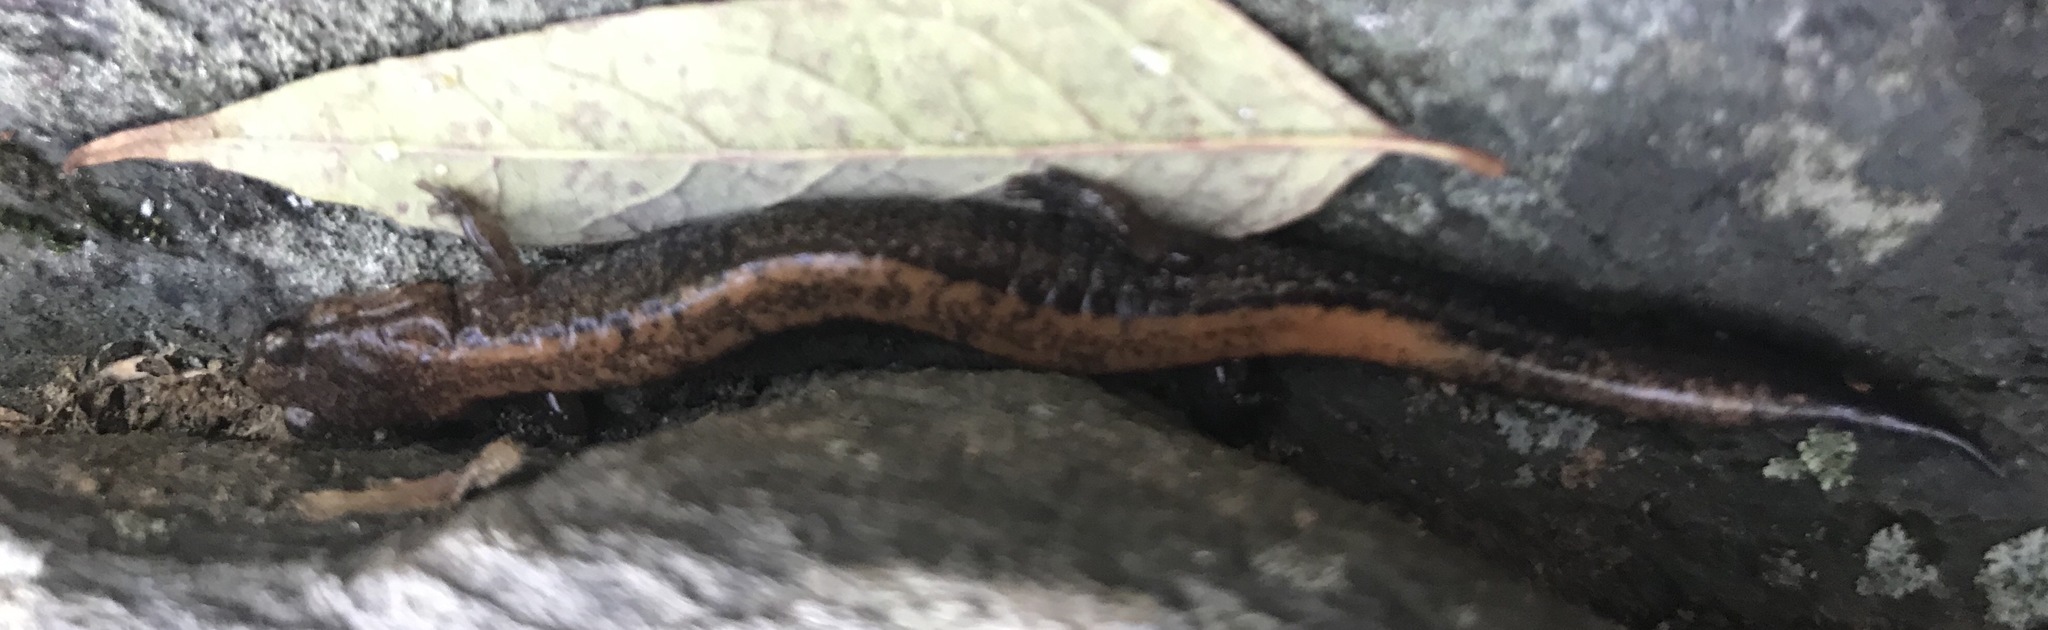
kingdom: Animalia
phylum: Chordata
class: Amphibia
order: Caudata
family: Plethodontidae
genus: Plethodon
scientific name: Plethodon cinereus
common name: Redback salamander
